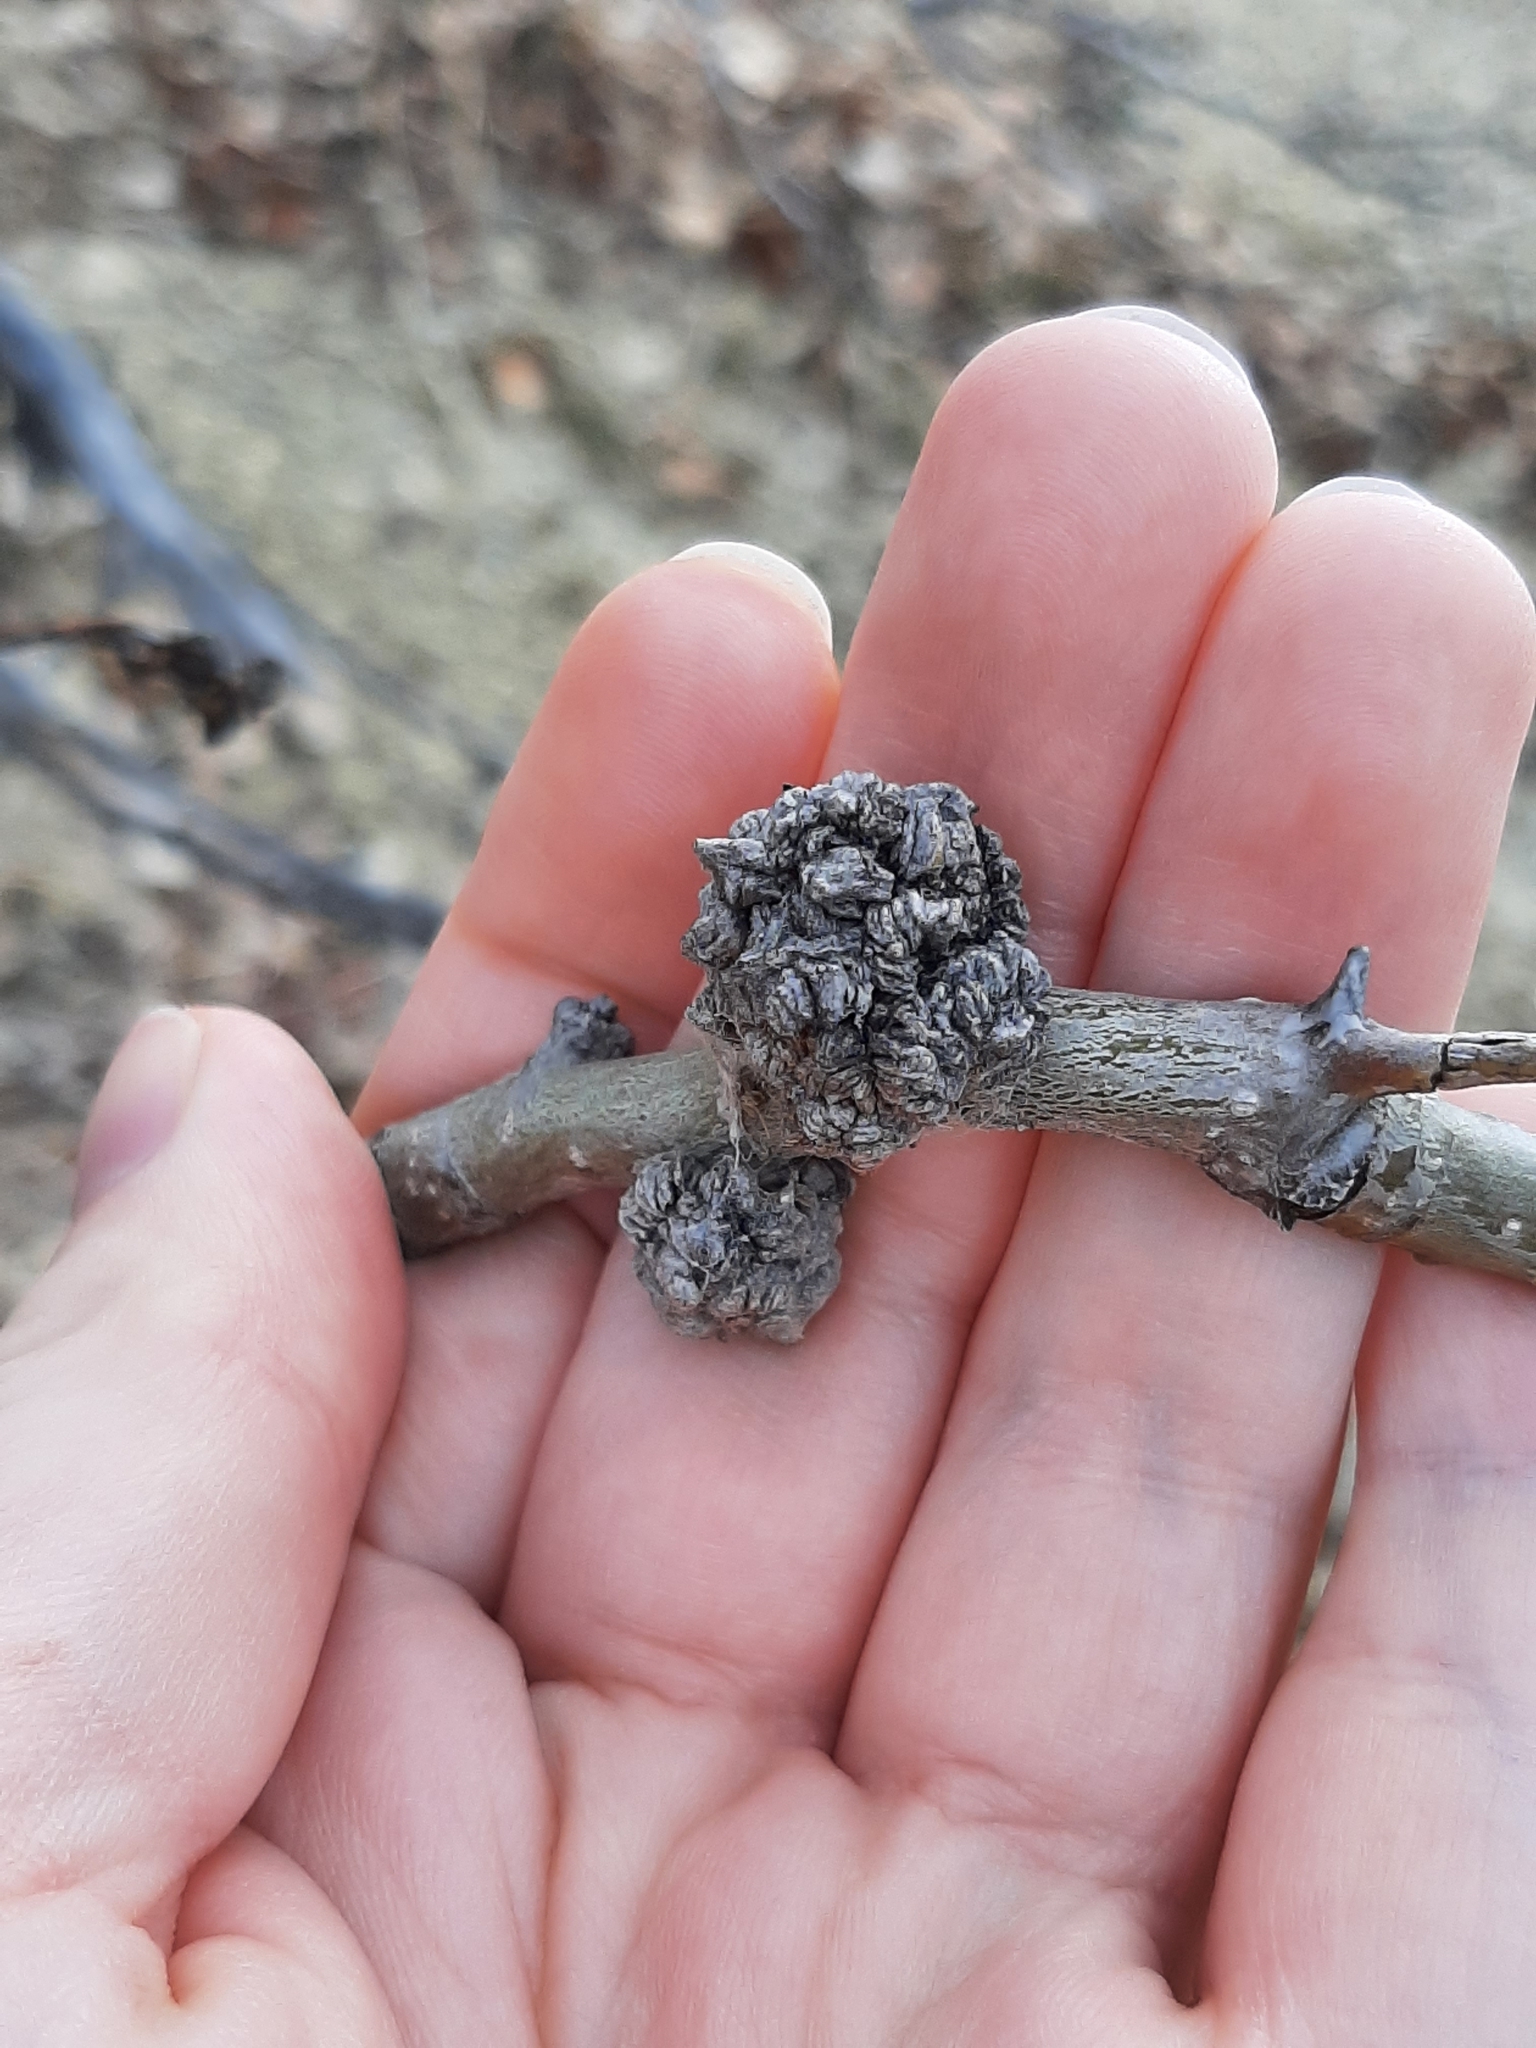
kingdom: Animalia
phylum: Arthropoda
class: Arachnida
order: Trombidiformes
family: Eriophyidae
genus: Aceria
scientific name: Aceria
